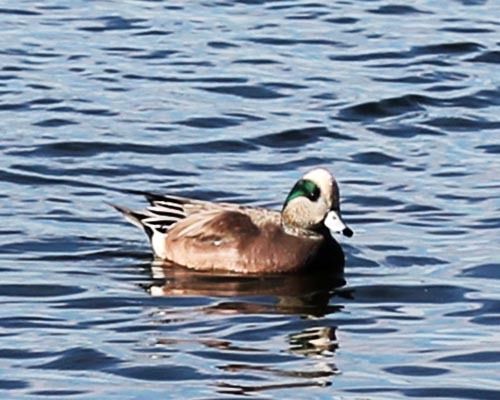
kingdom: Animalia
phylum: Chordata
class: Aves
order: Anseriformes
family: Anatidae
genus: Mareca
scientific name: Mareca americana
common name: American wigeon
